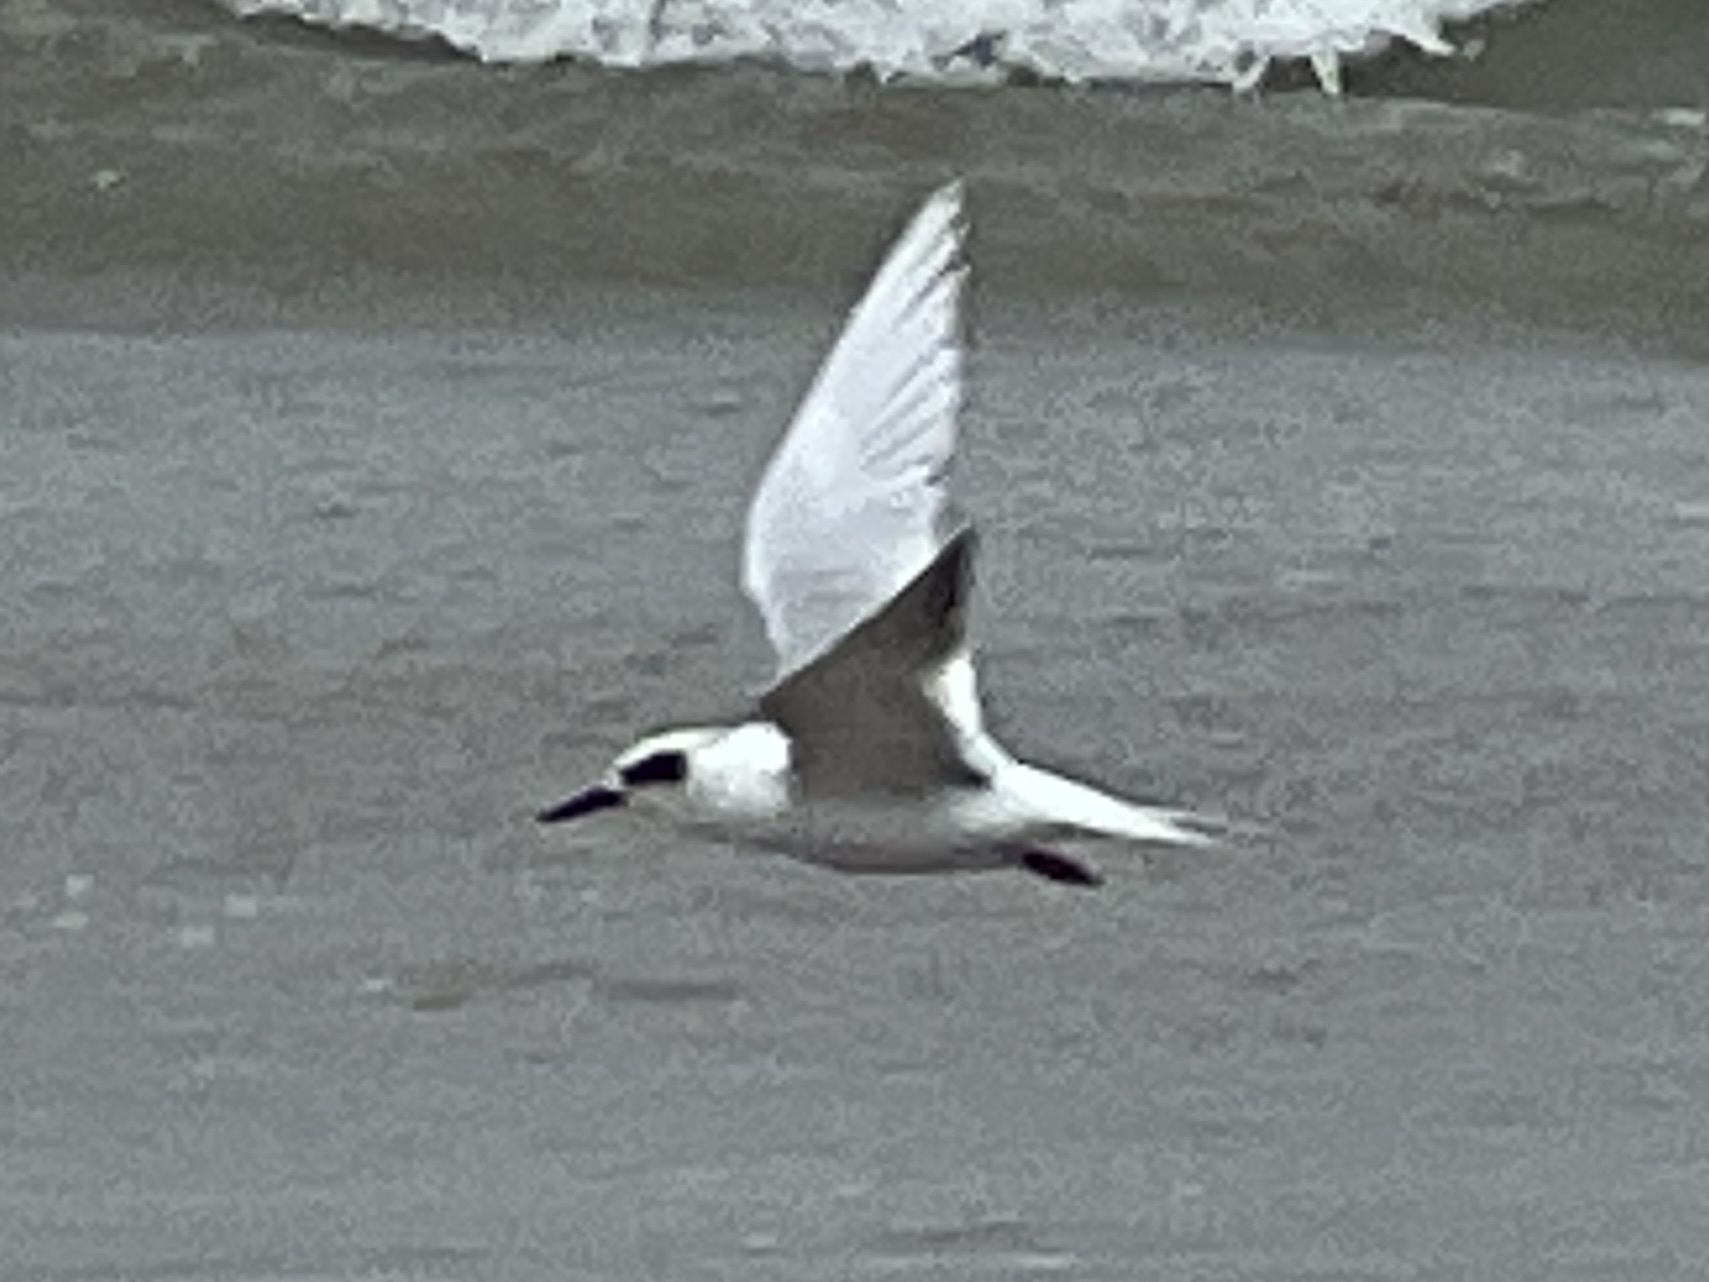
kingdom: Animalia
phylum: Chordata
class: Aves
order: Charadriiformes
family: Laridae
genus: Sterna
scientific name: Sterna forsteri
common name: Forster's tern
